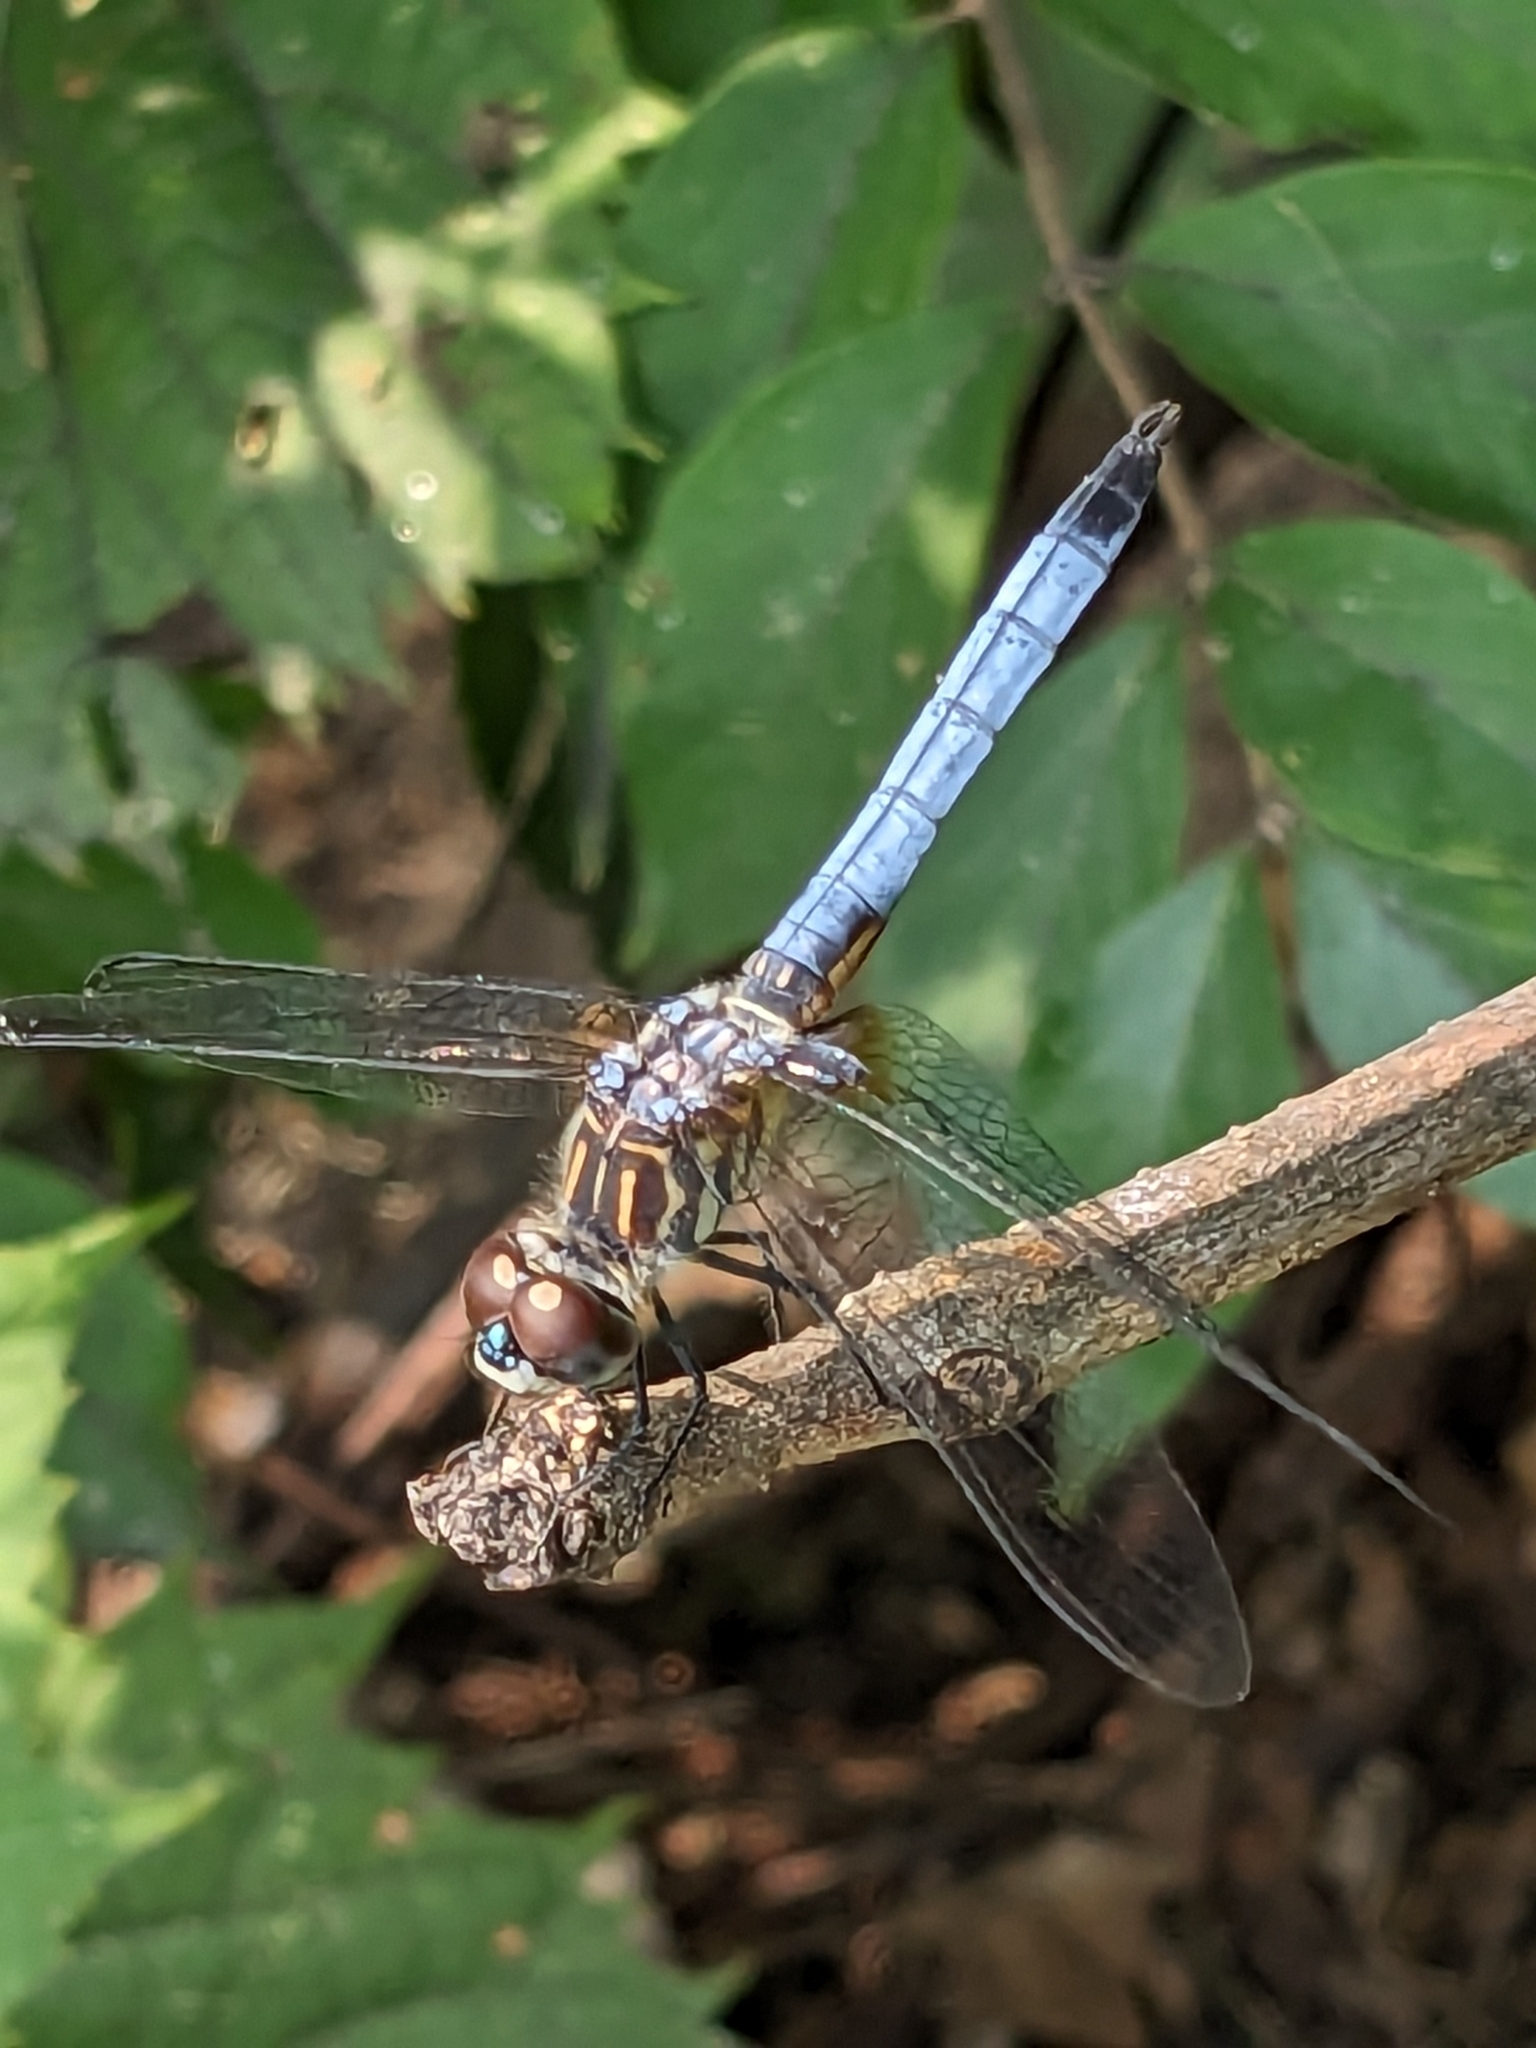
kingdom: Animalia
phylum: Arthropoda
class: Insecta
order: Odonata
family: Libellulidae
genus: Pachydiplax
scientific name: Pachydiplax longipennis
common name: Blue dasher
